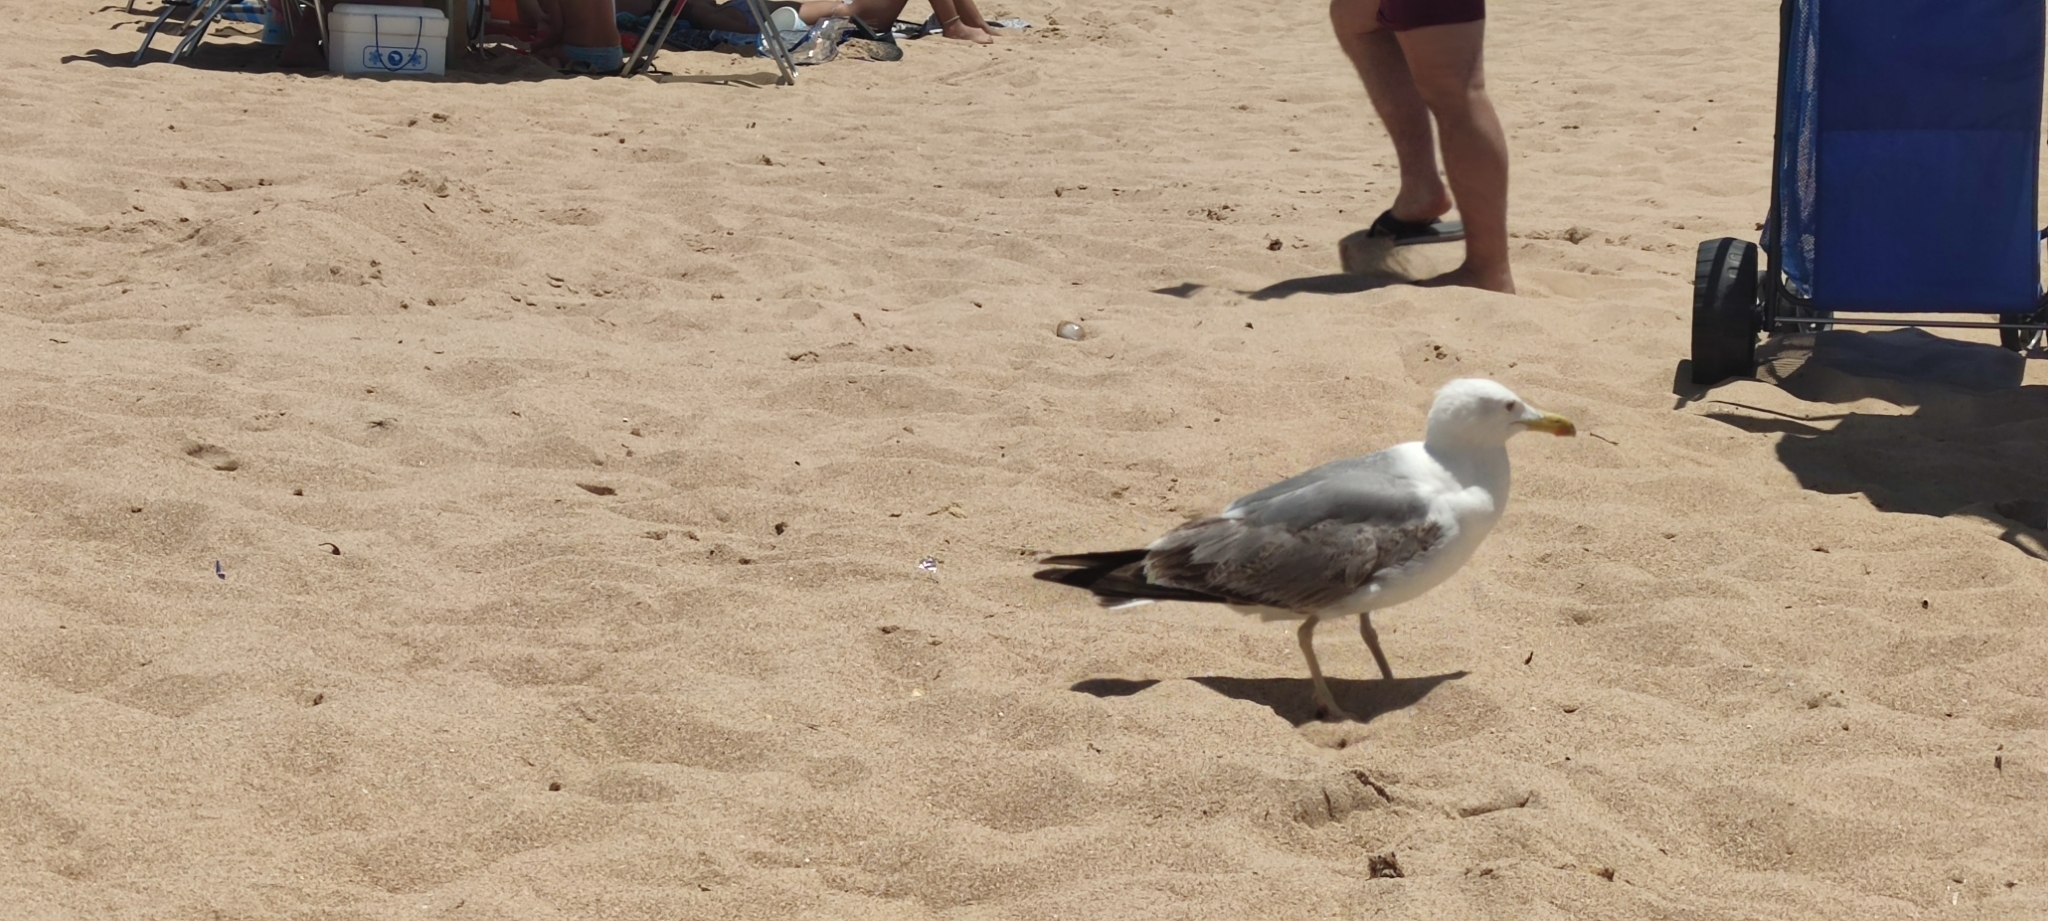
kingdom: Animalia
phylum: Chordata
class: Aves
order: Charadriiformes
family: Laridae
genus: Larus
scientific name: Larus michahellis
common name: Yellow-legged gull
